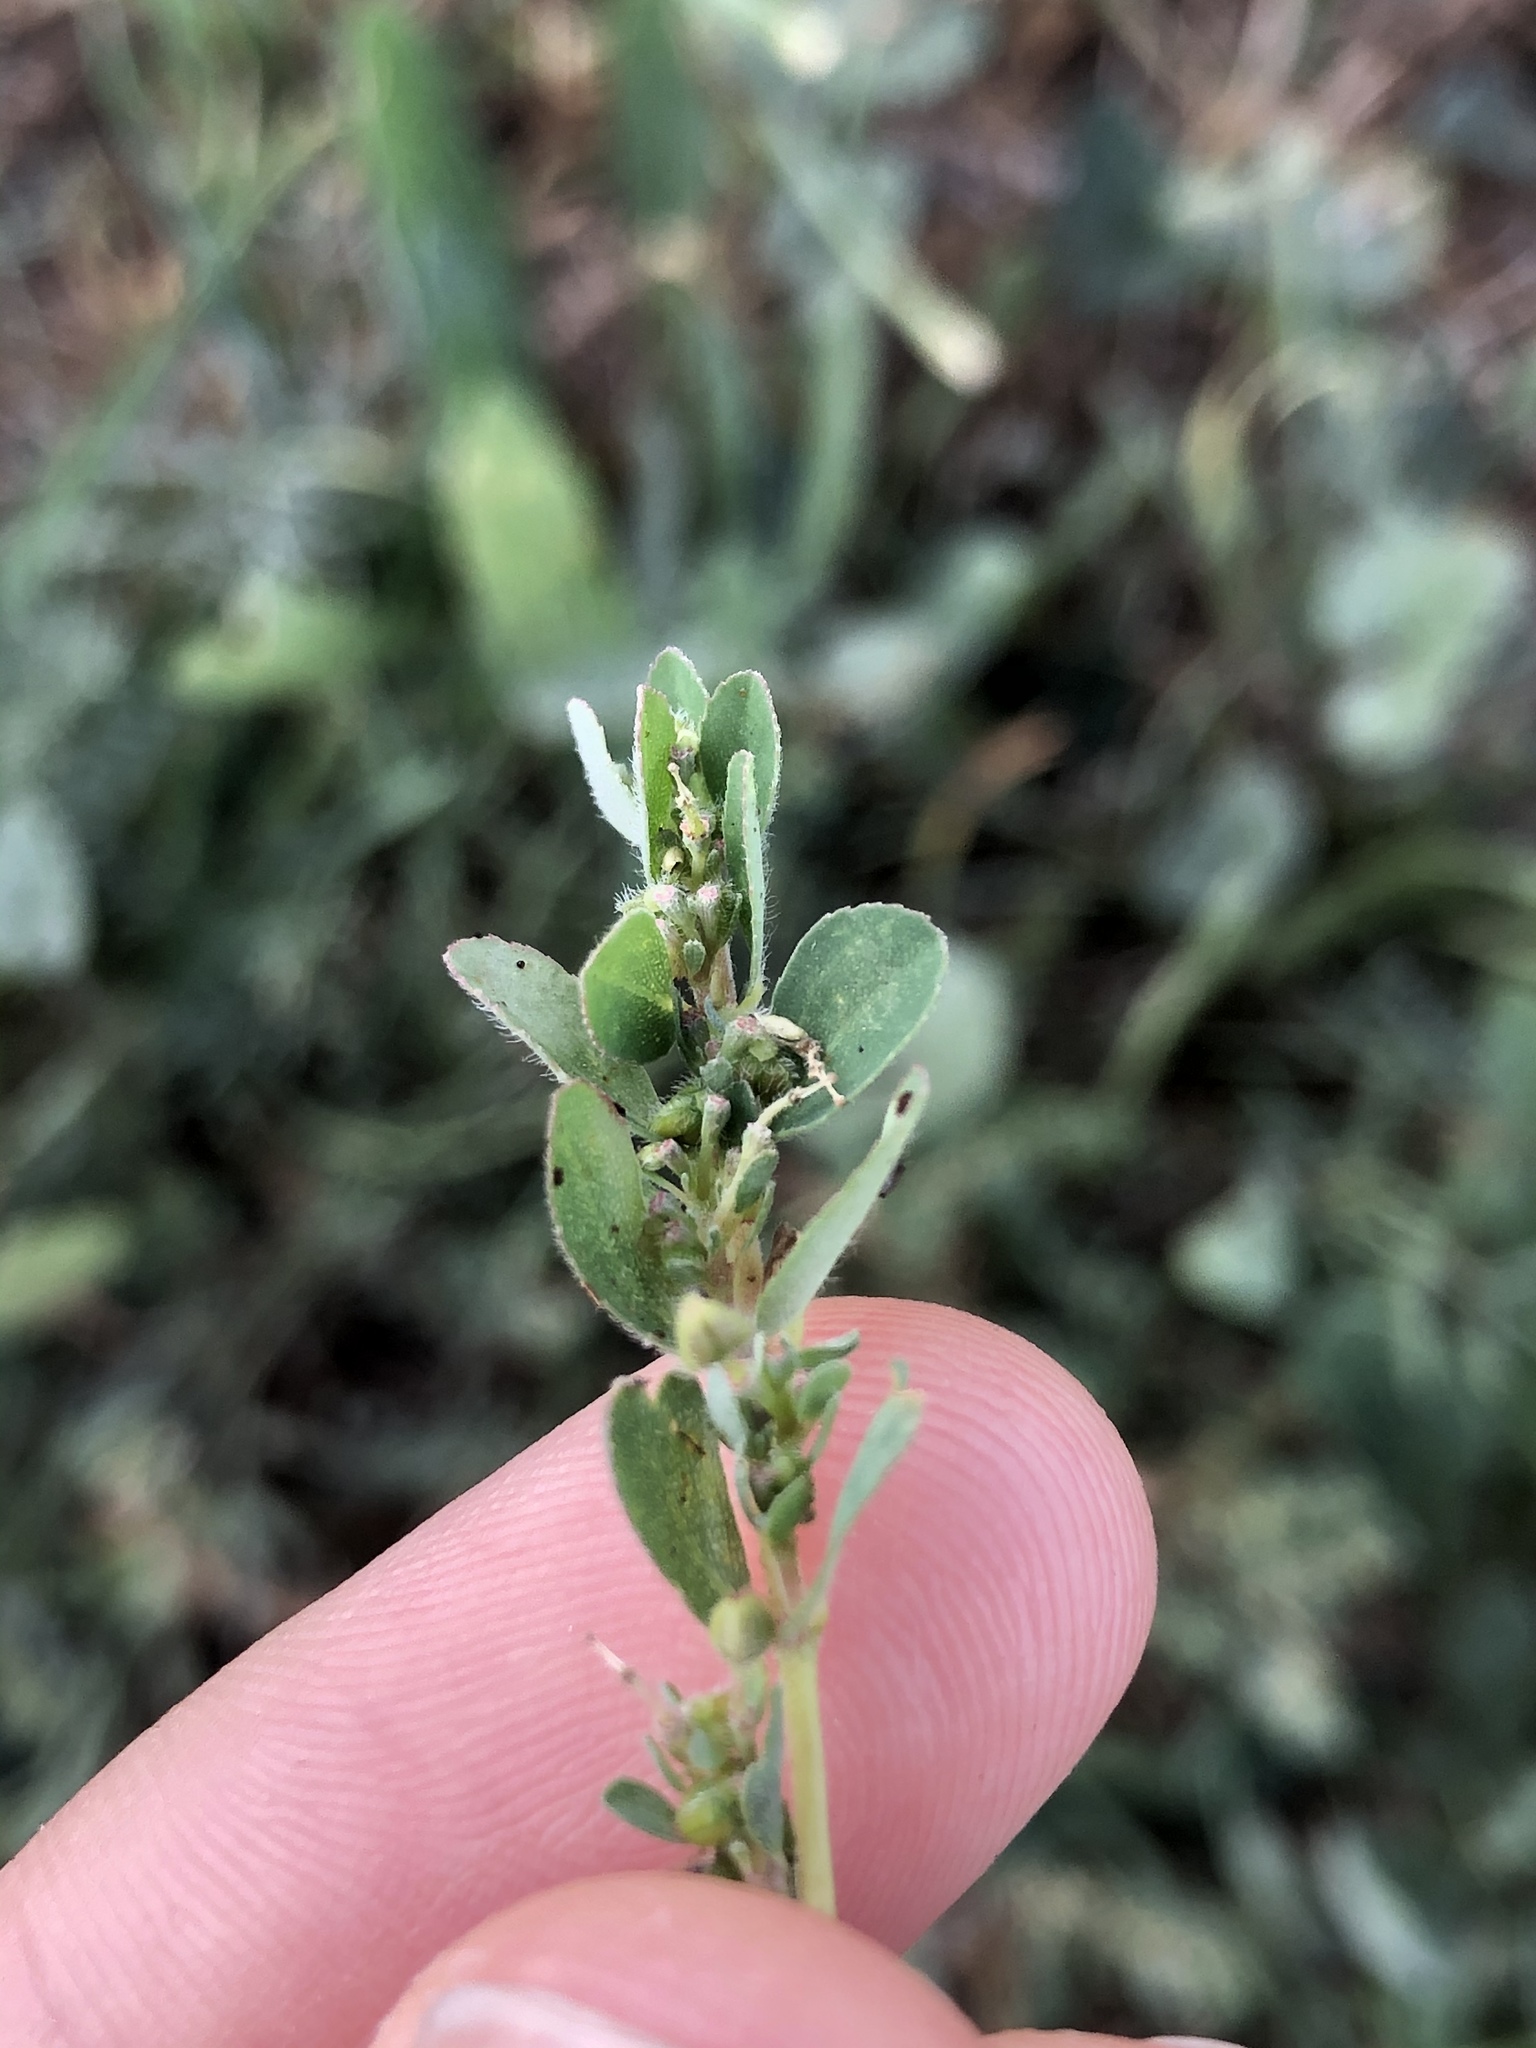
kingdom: Plantae
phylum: Tracheophyta
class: Magnoliopsida
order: Malpighiales
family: Euphorbiaceae
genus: Euphorbia
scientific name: Euphorbia prostrata
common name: Prostrate sandmat
